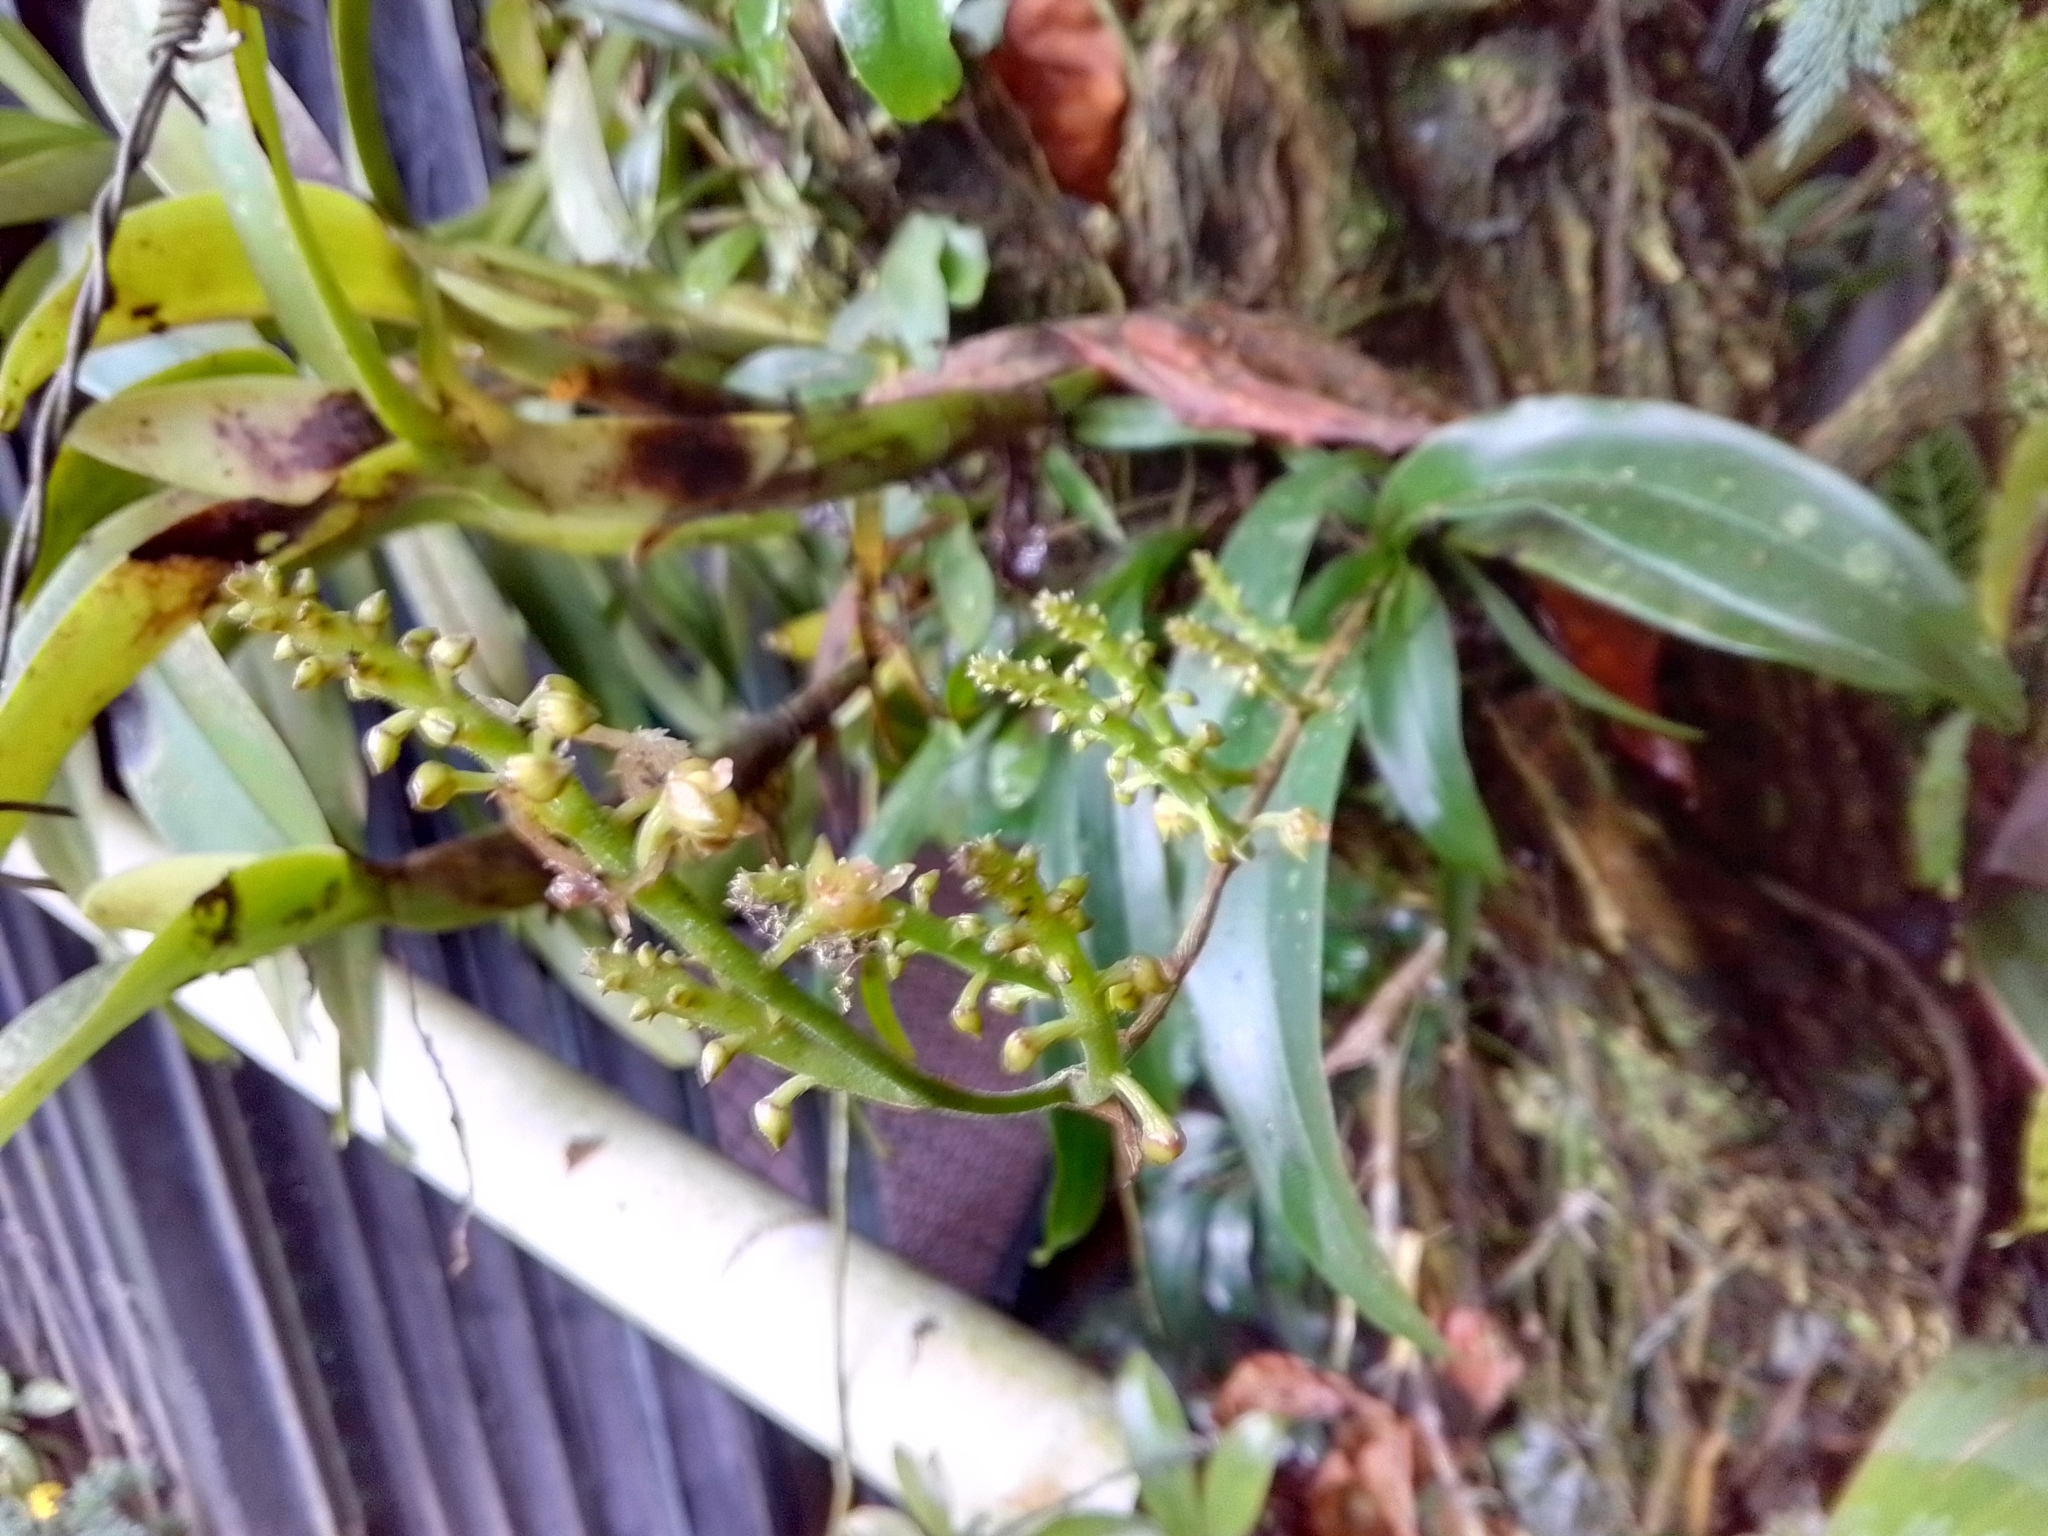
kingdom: Plantae
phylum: Tracheophyta
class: Liliopsida
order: Asparagales
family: Orchidaceae
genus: Polystachya
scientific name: Polystachya foliosa
